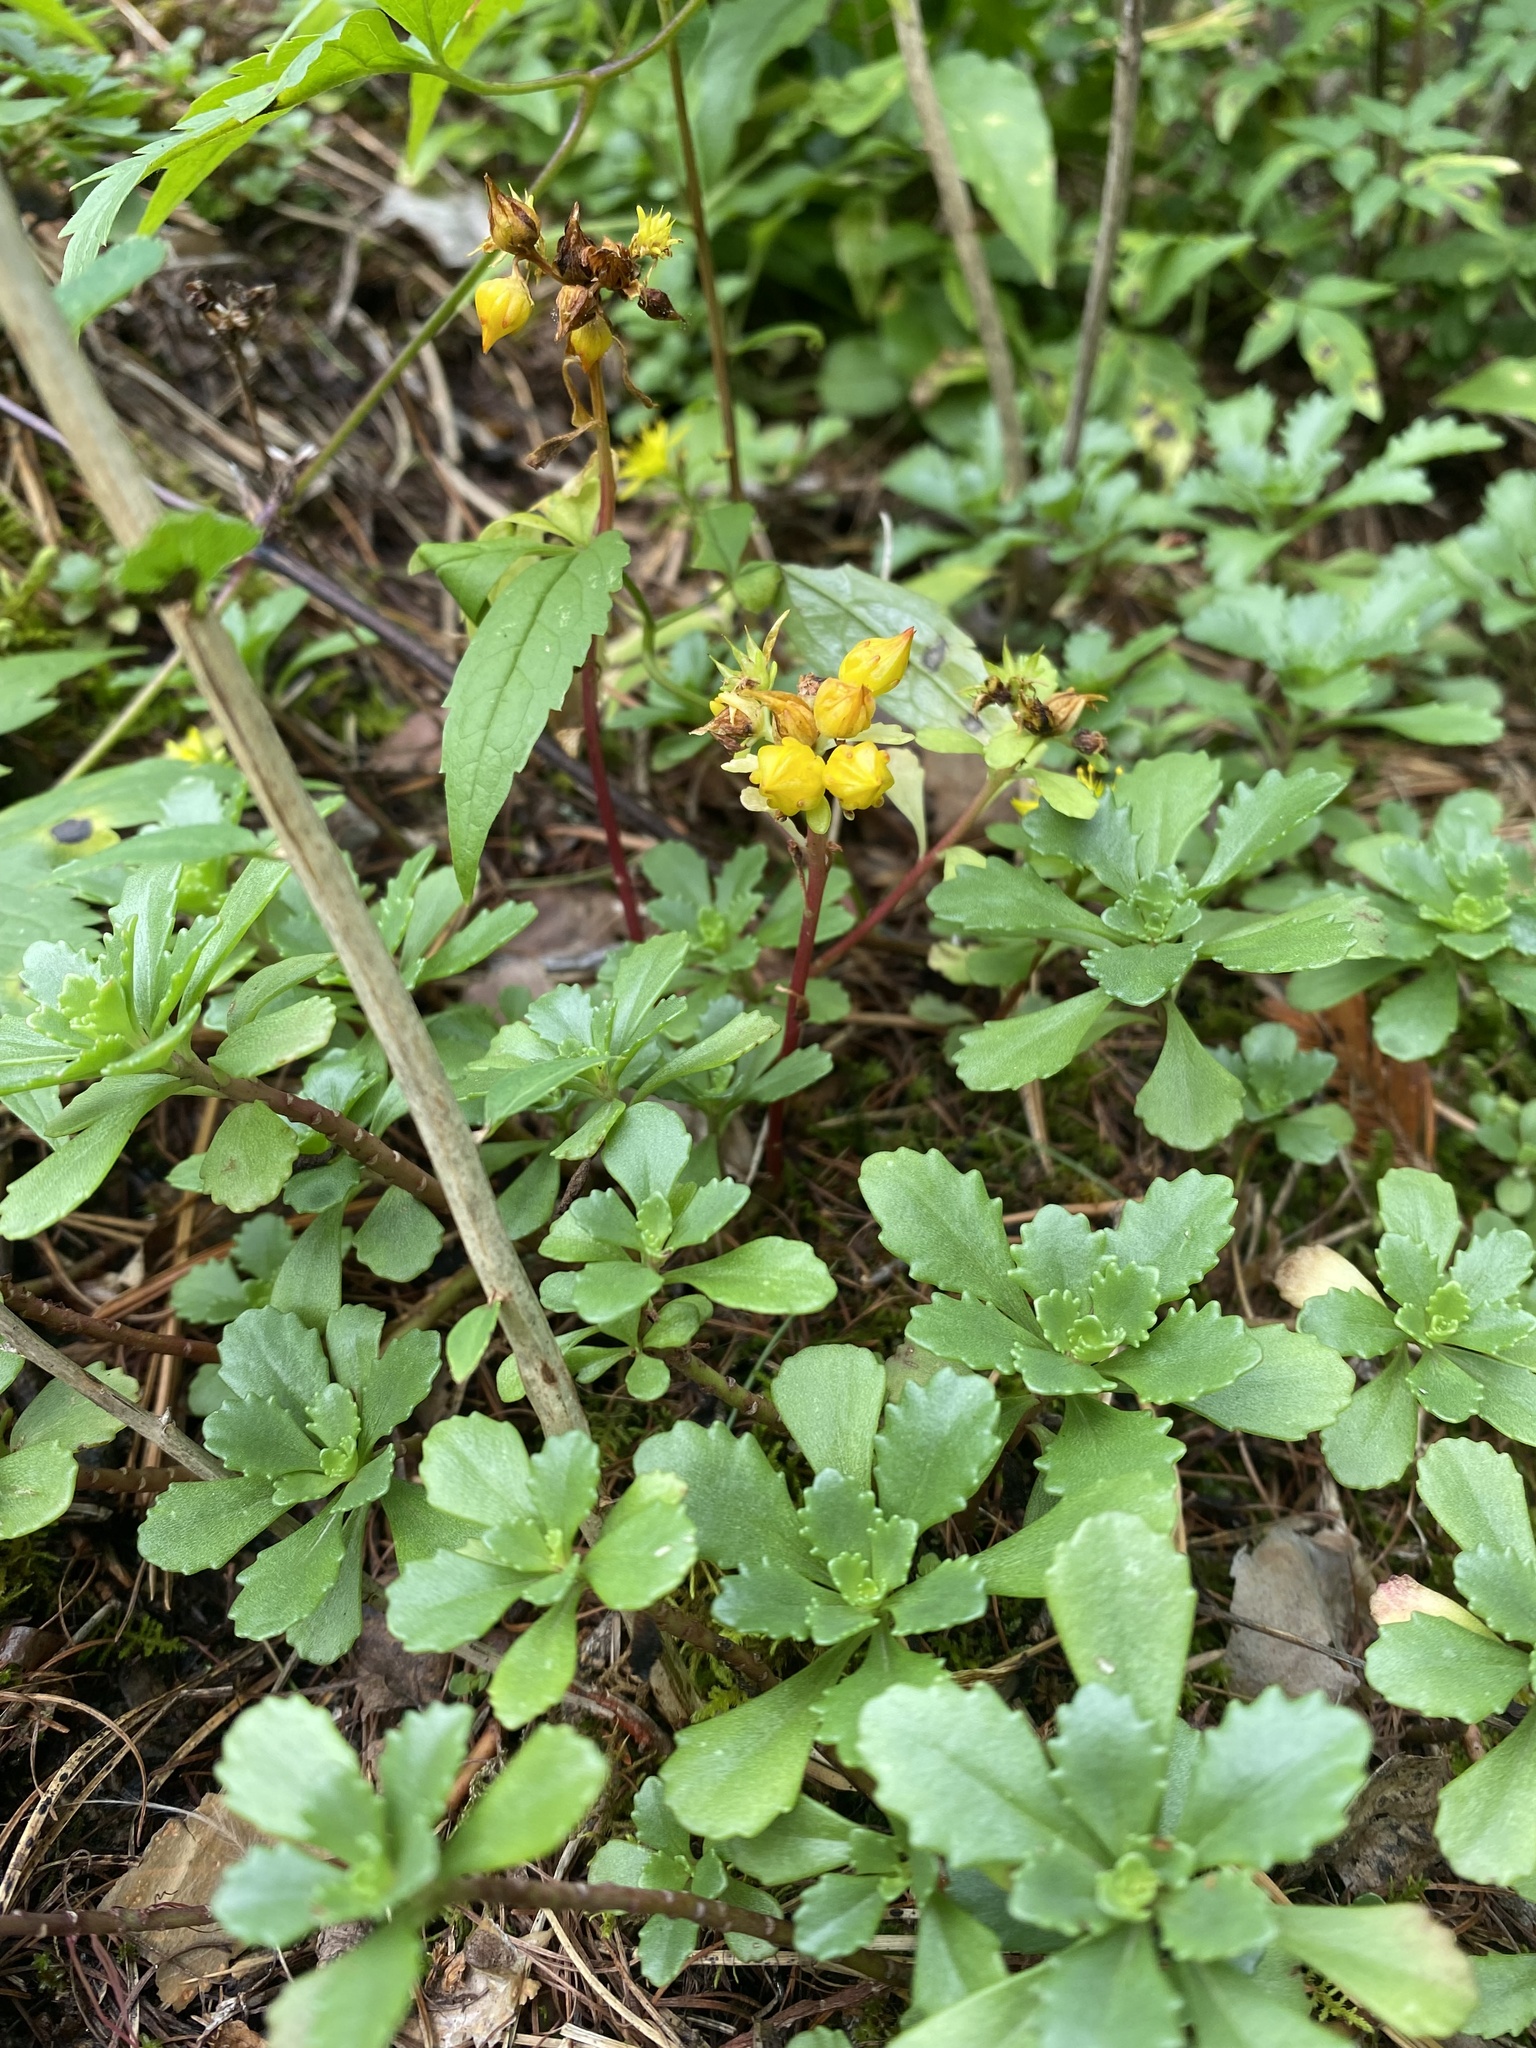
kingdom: Plantae
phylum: Tracheophyta
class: Magnoliopsida
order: Saxifragales
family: Crassulaceae
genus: Phedimus
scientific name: Phedimus hybridus
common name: Hybrid stonecrop
